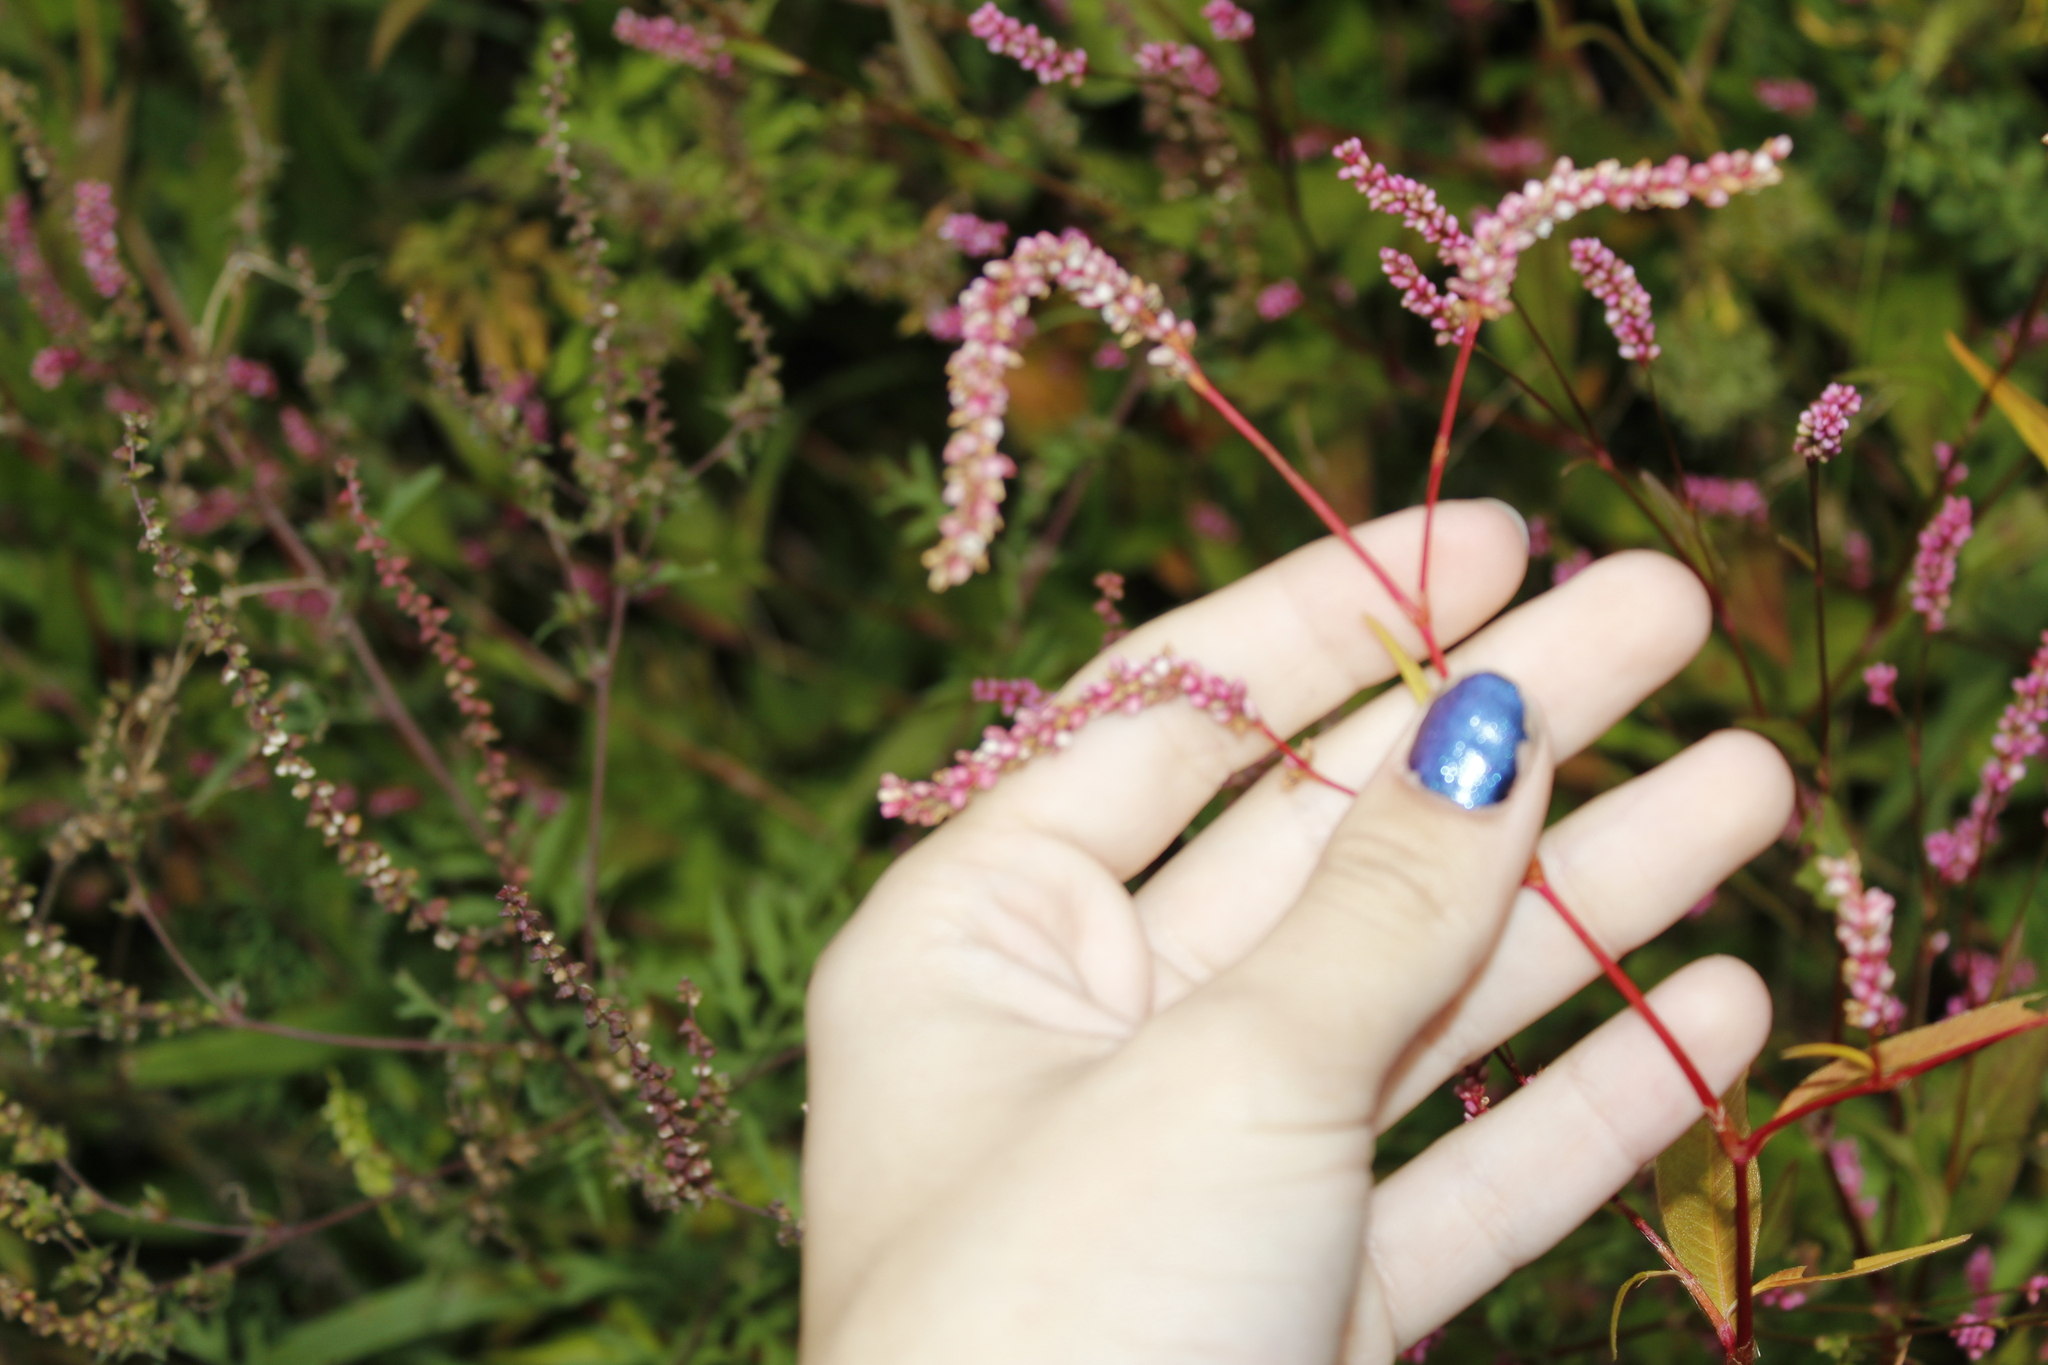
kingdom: Plantae
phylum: Tracheophyta
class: Magnoliopsida
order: Caryophyllales
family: Polygonaceae
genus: Persicaria
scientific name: Persicaria extremiorientalis
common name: Far-eastern smartweed
